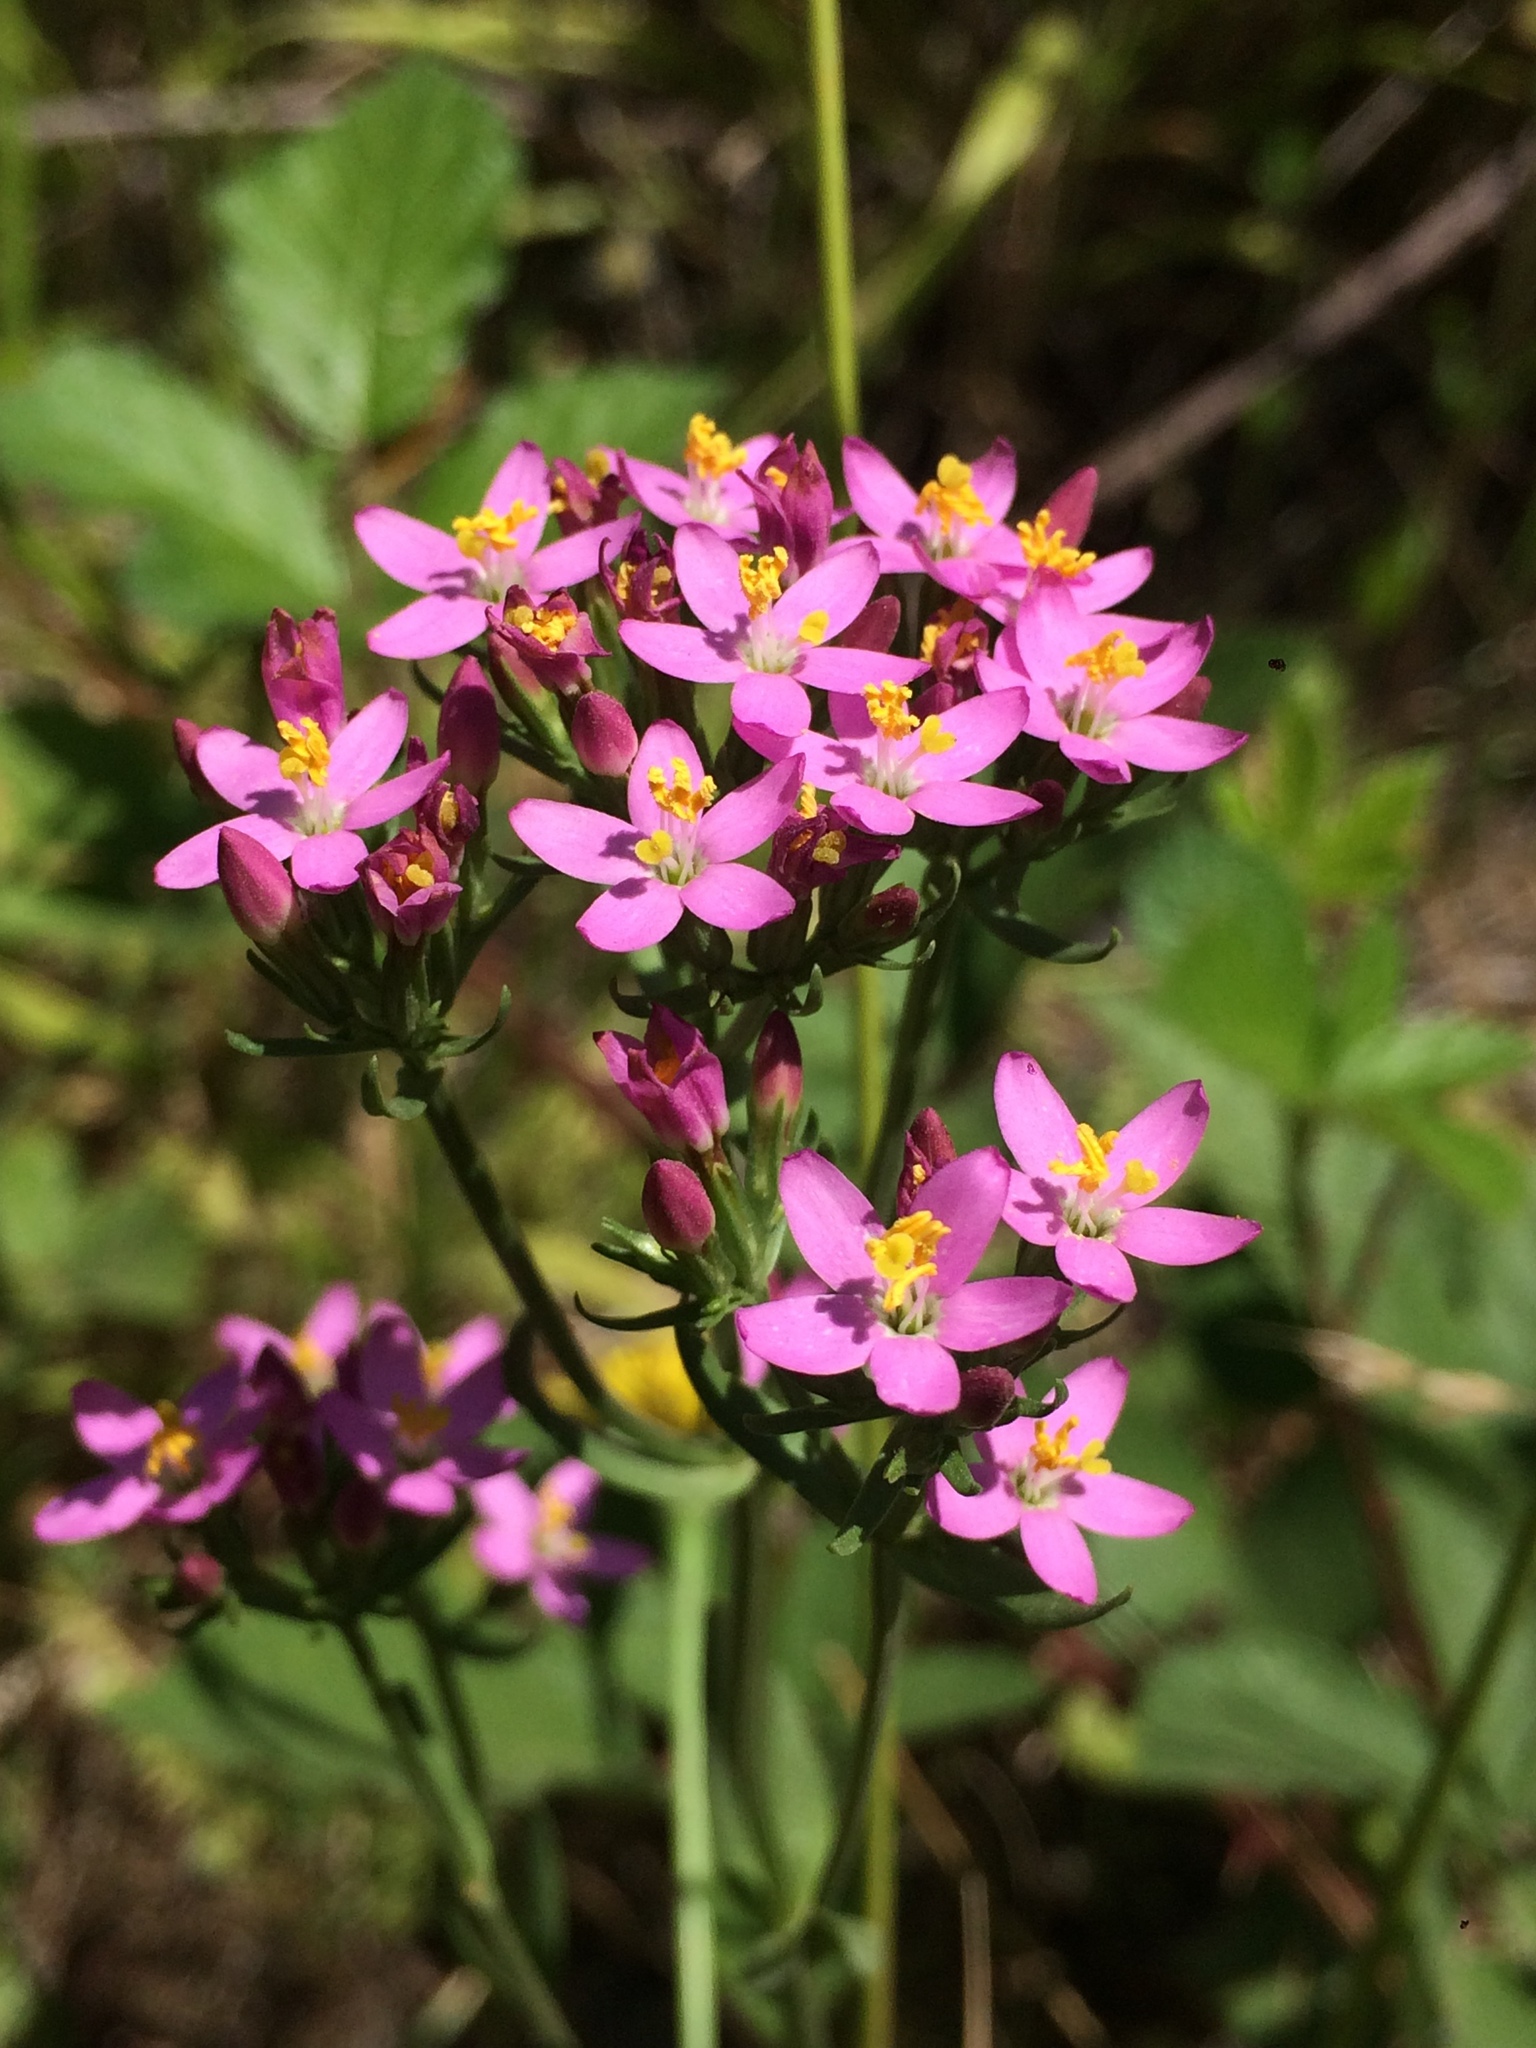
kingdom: Plantae
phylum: Tracheophyta
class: Magnoliopsida
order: Gentianales
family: Gentianaceae
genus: Centaurium
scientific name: Centaurium erythraea
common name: Common centaury
